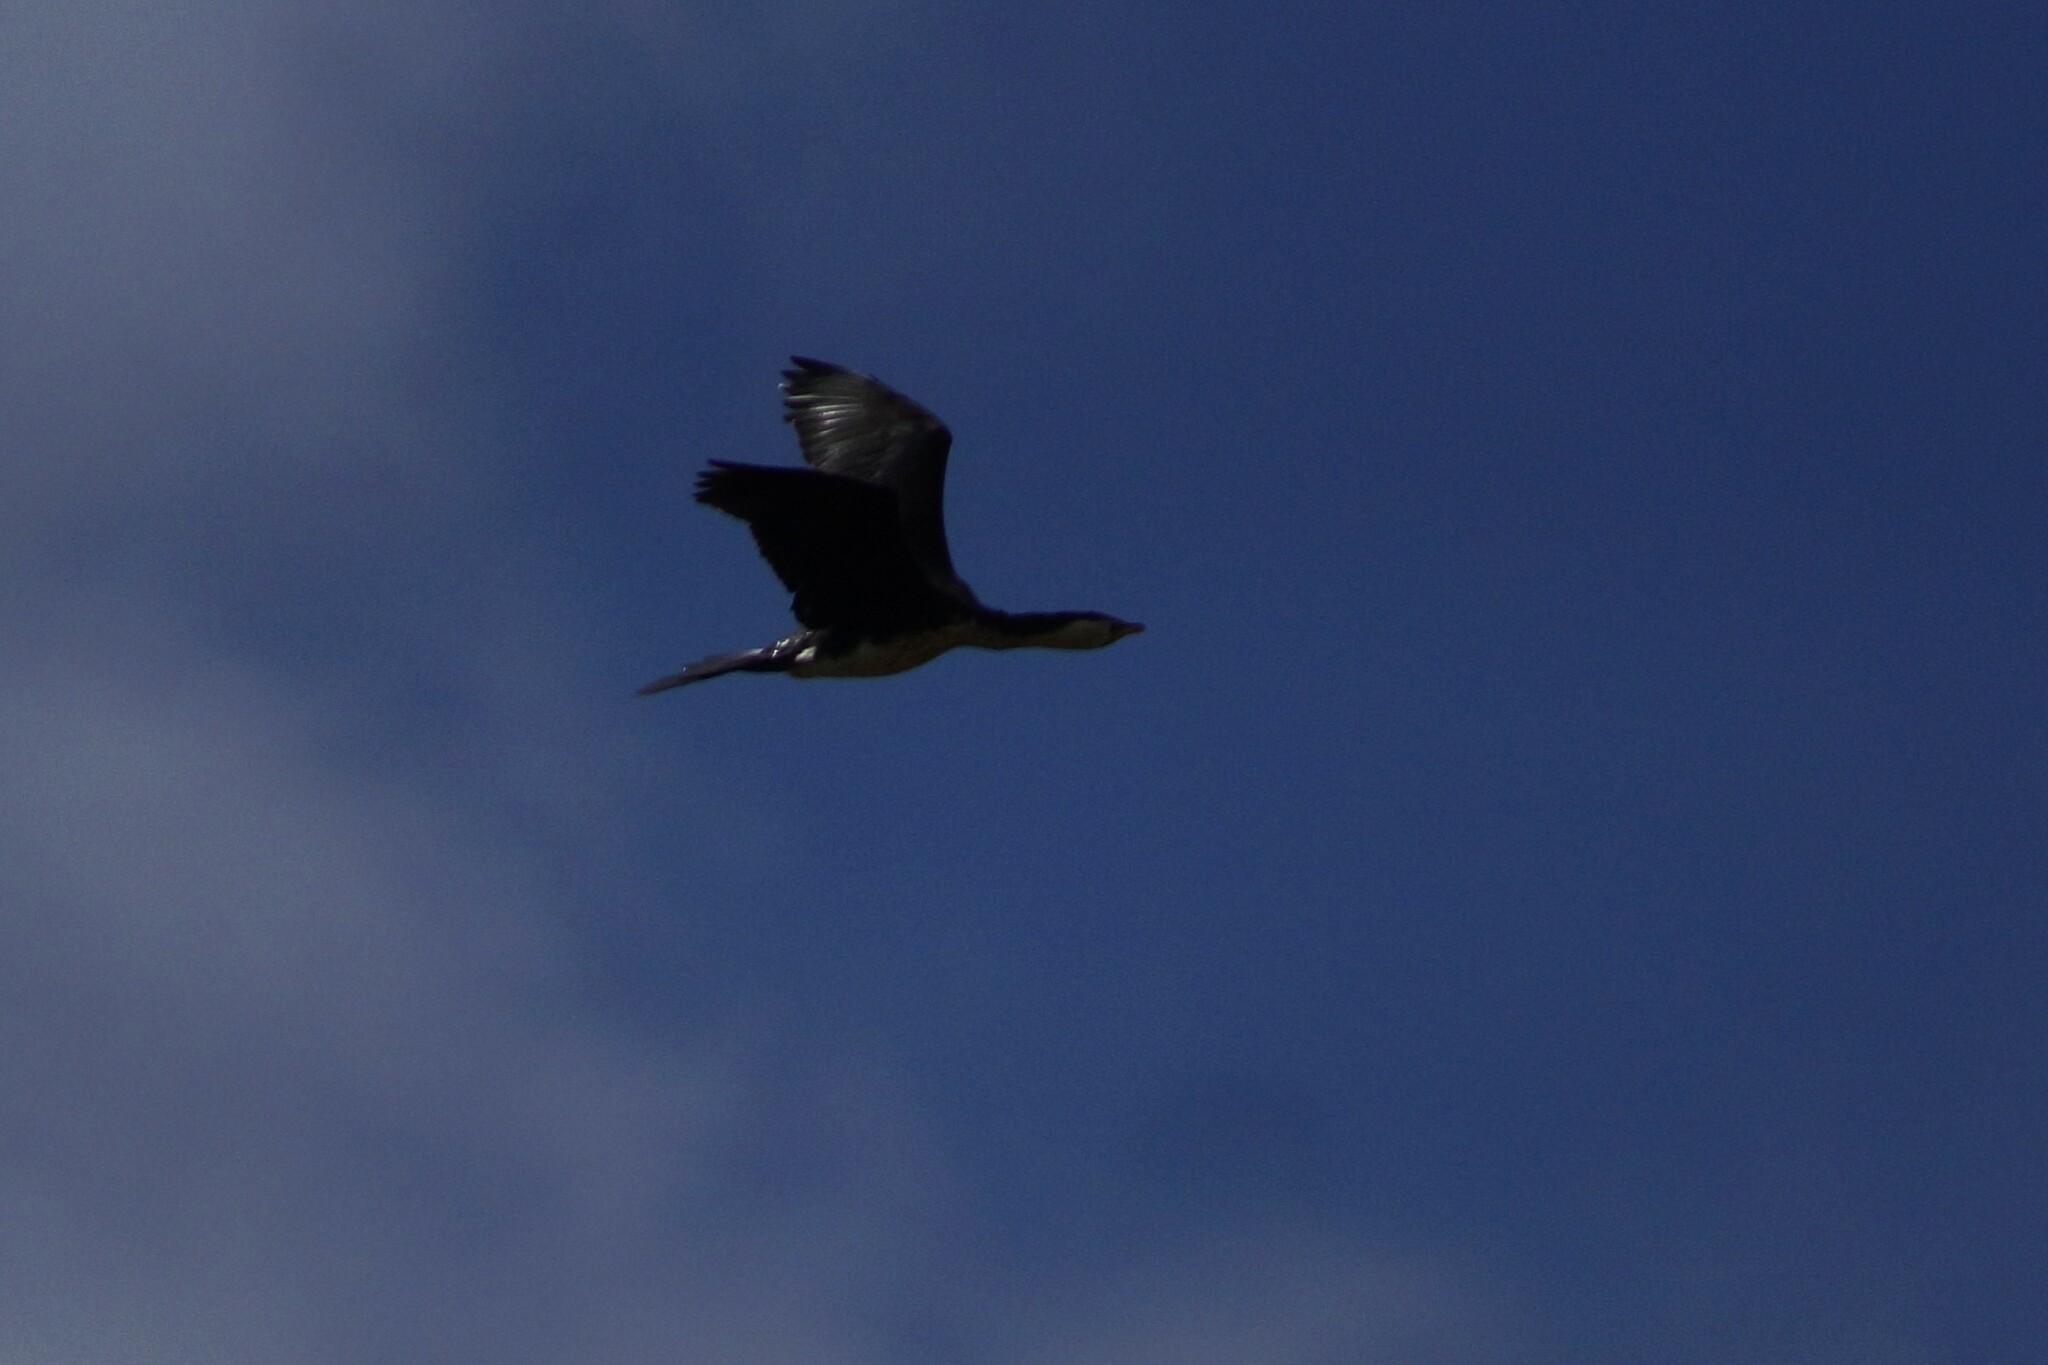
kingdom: Animalia
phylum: Chordata
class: Aves
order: Suliformes
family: Phalacrocoracidae
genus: Microcarbo
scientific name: Microcarbo melanoleucos
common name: Little pied cormorant
